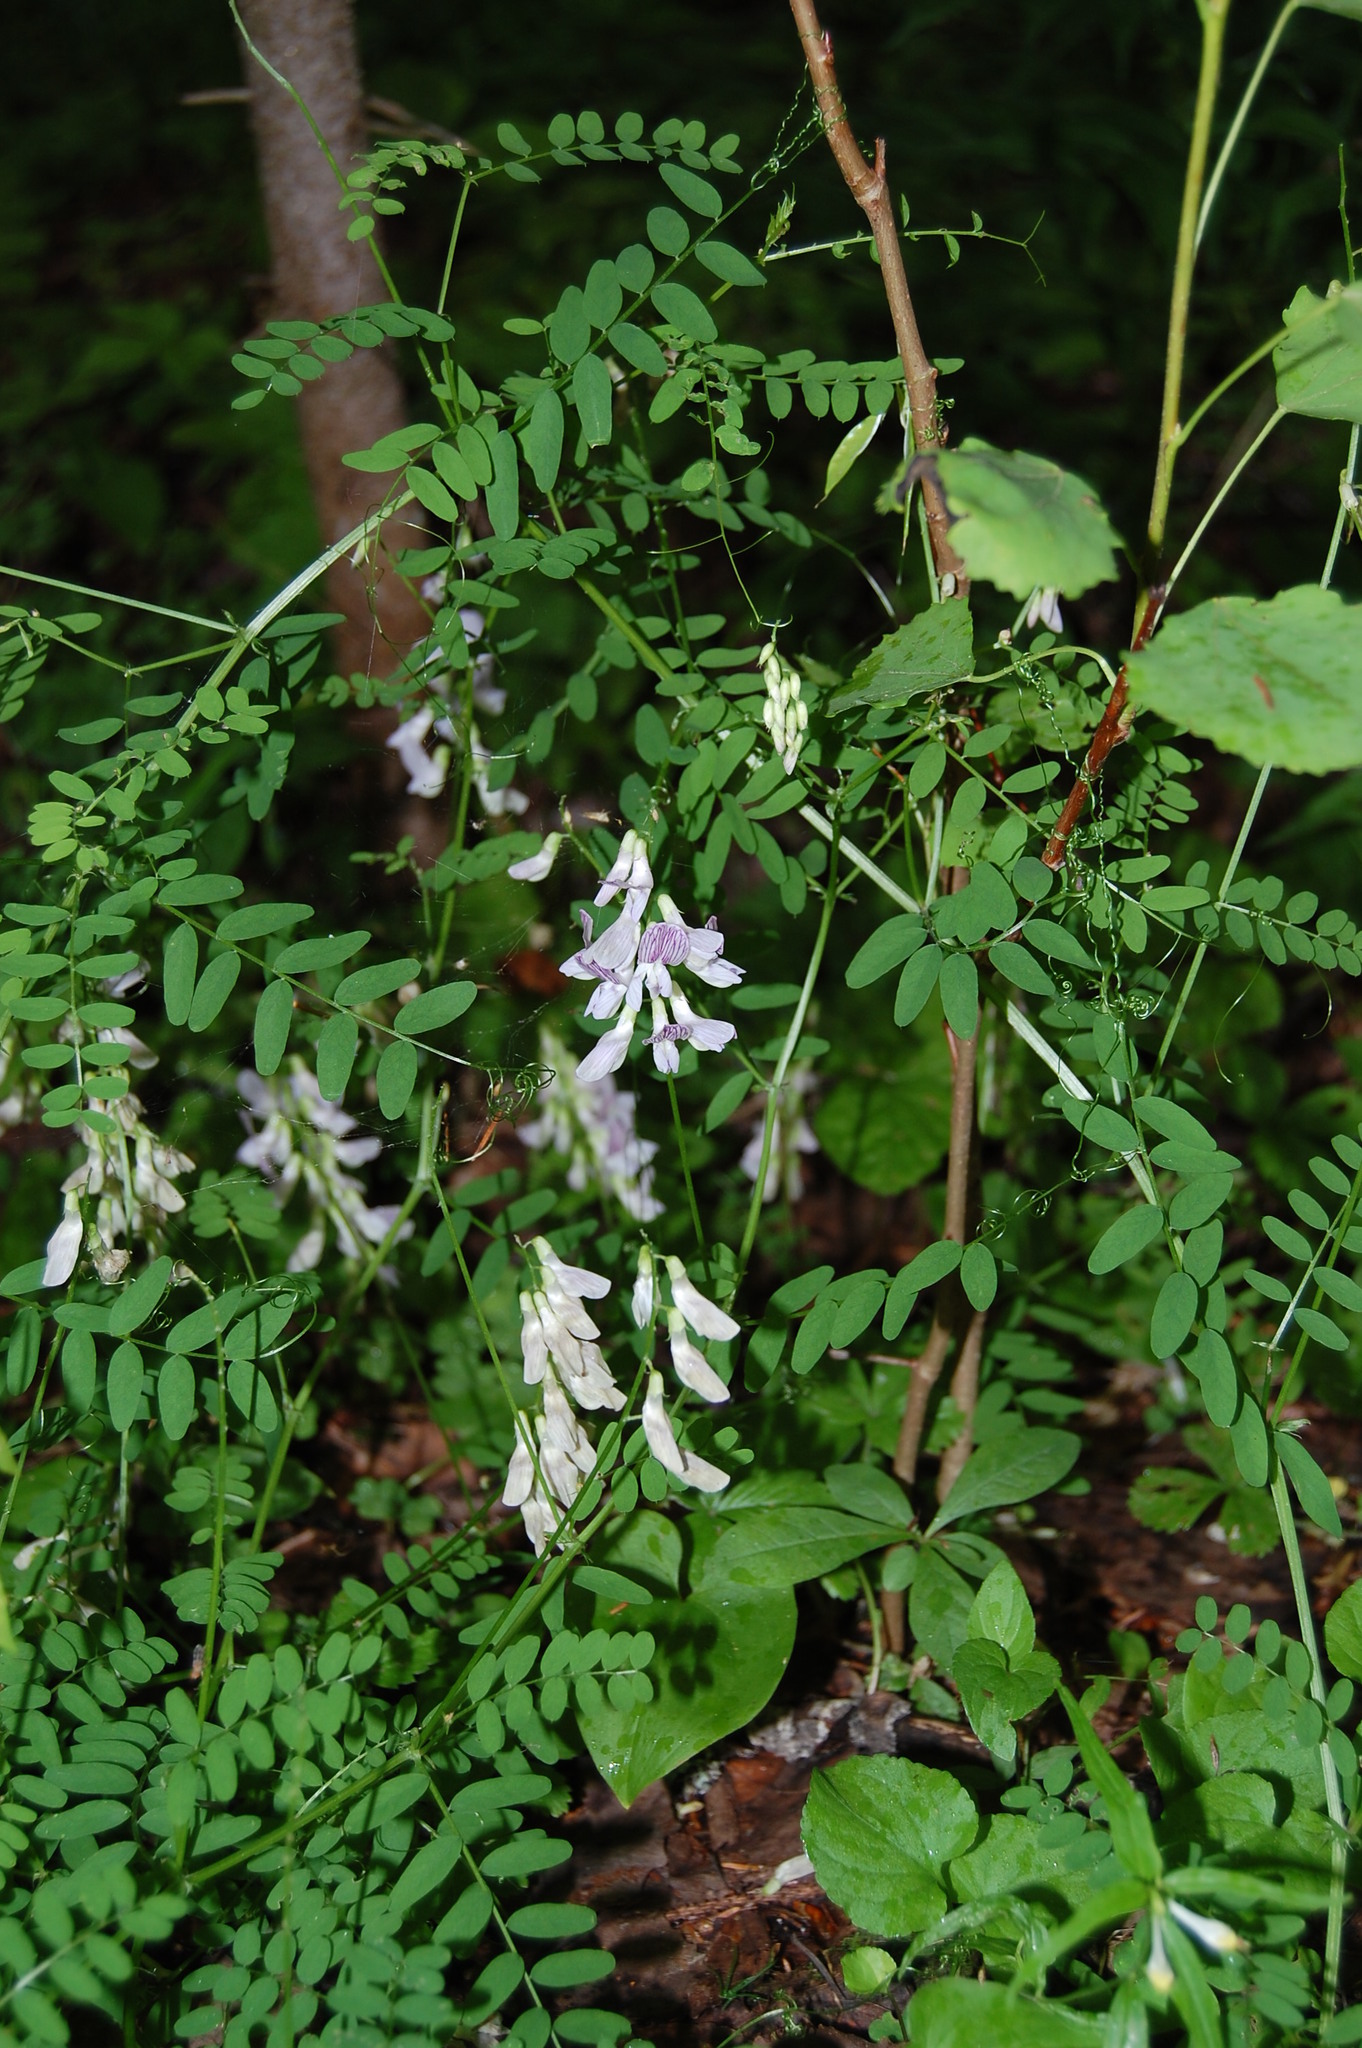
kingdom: Plantae
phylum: Tracheophyta
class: Magnoliopsida
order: Fabales
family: Fabaceae
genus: Vicia
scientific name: Vicia sylvatica
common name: Wood vetch
